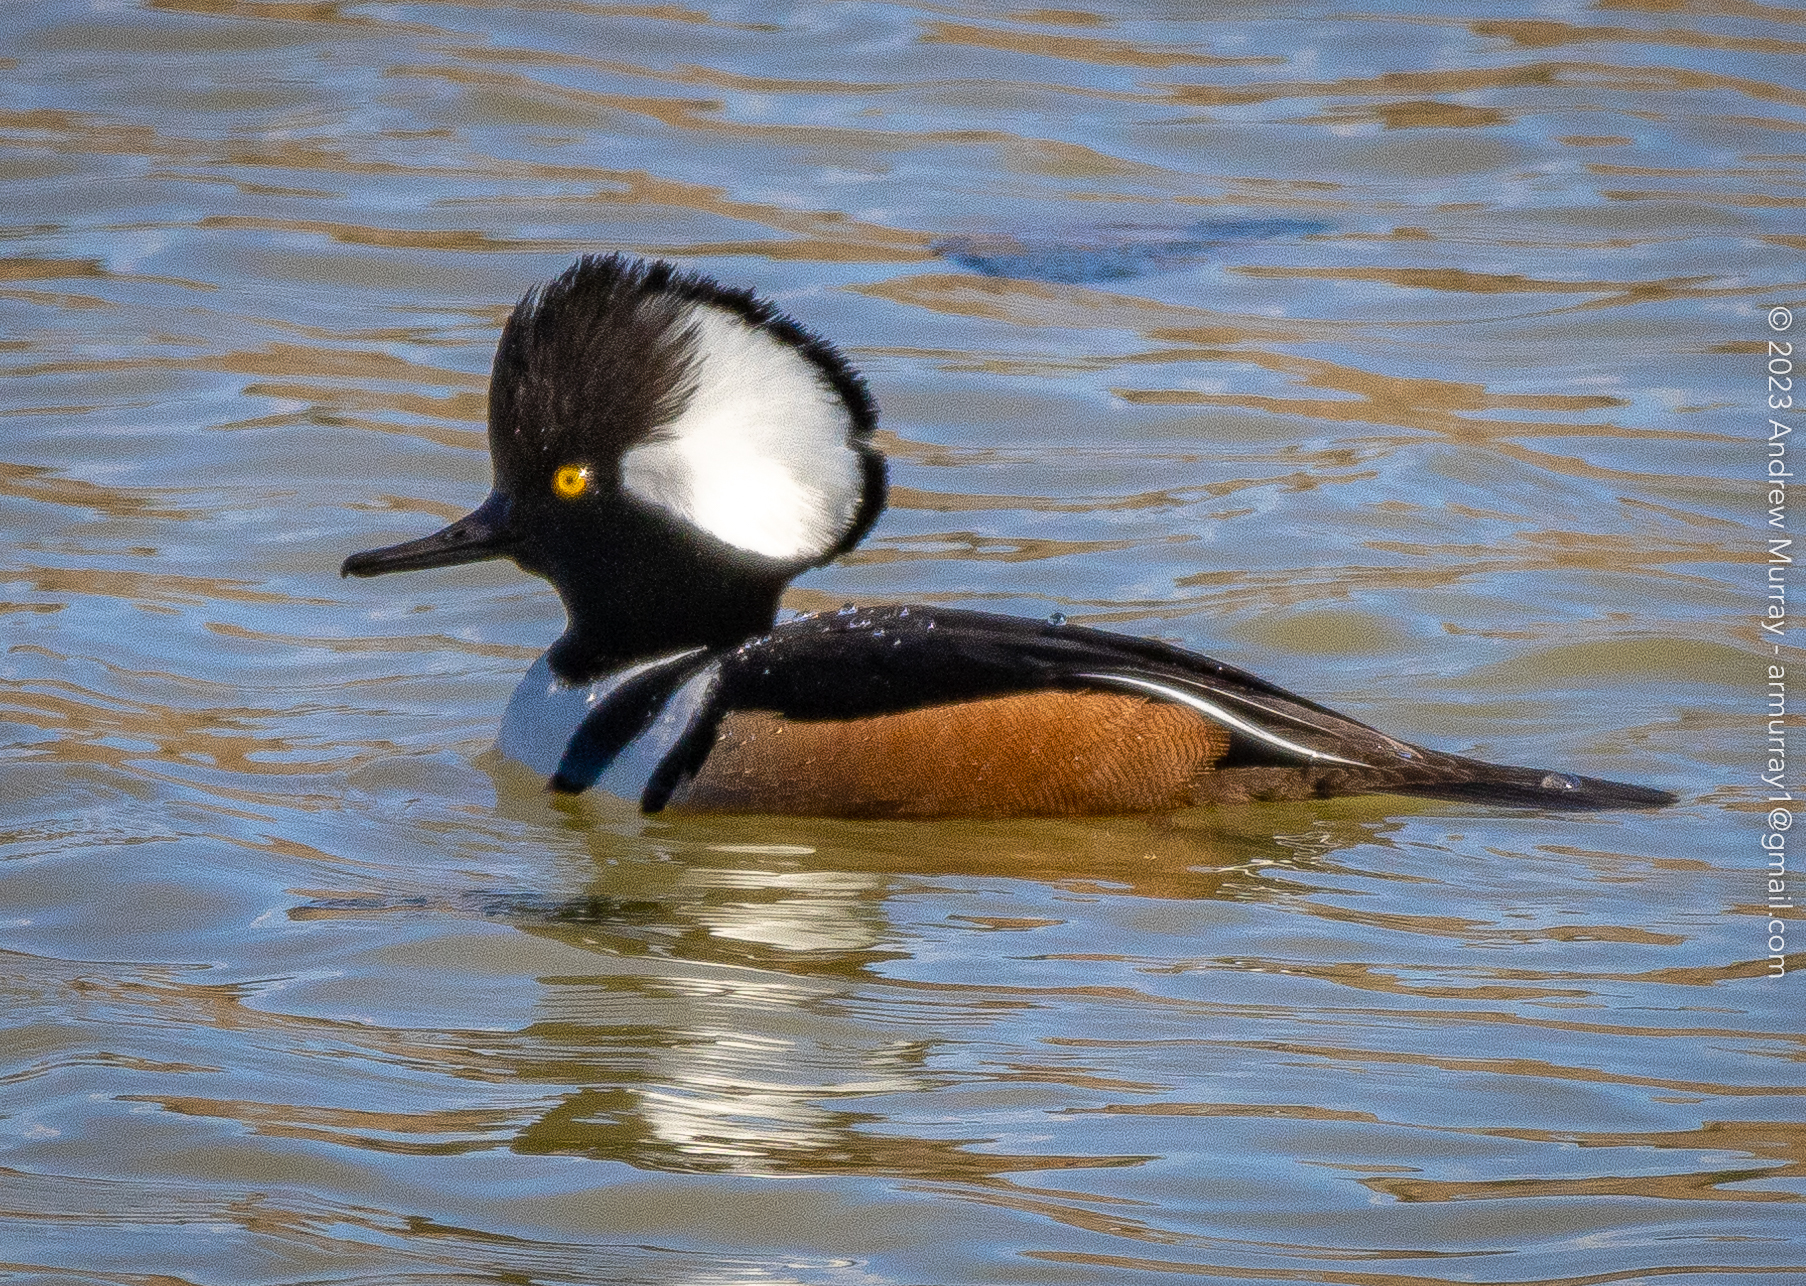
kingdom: Animalia
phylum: Chordata
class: Aves
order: Anseriformes
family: Anatidae
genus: Lophodytes
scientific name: Lophodytes cucullatus
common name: Hooded merganser
